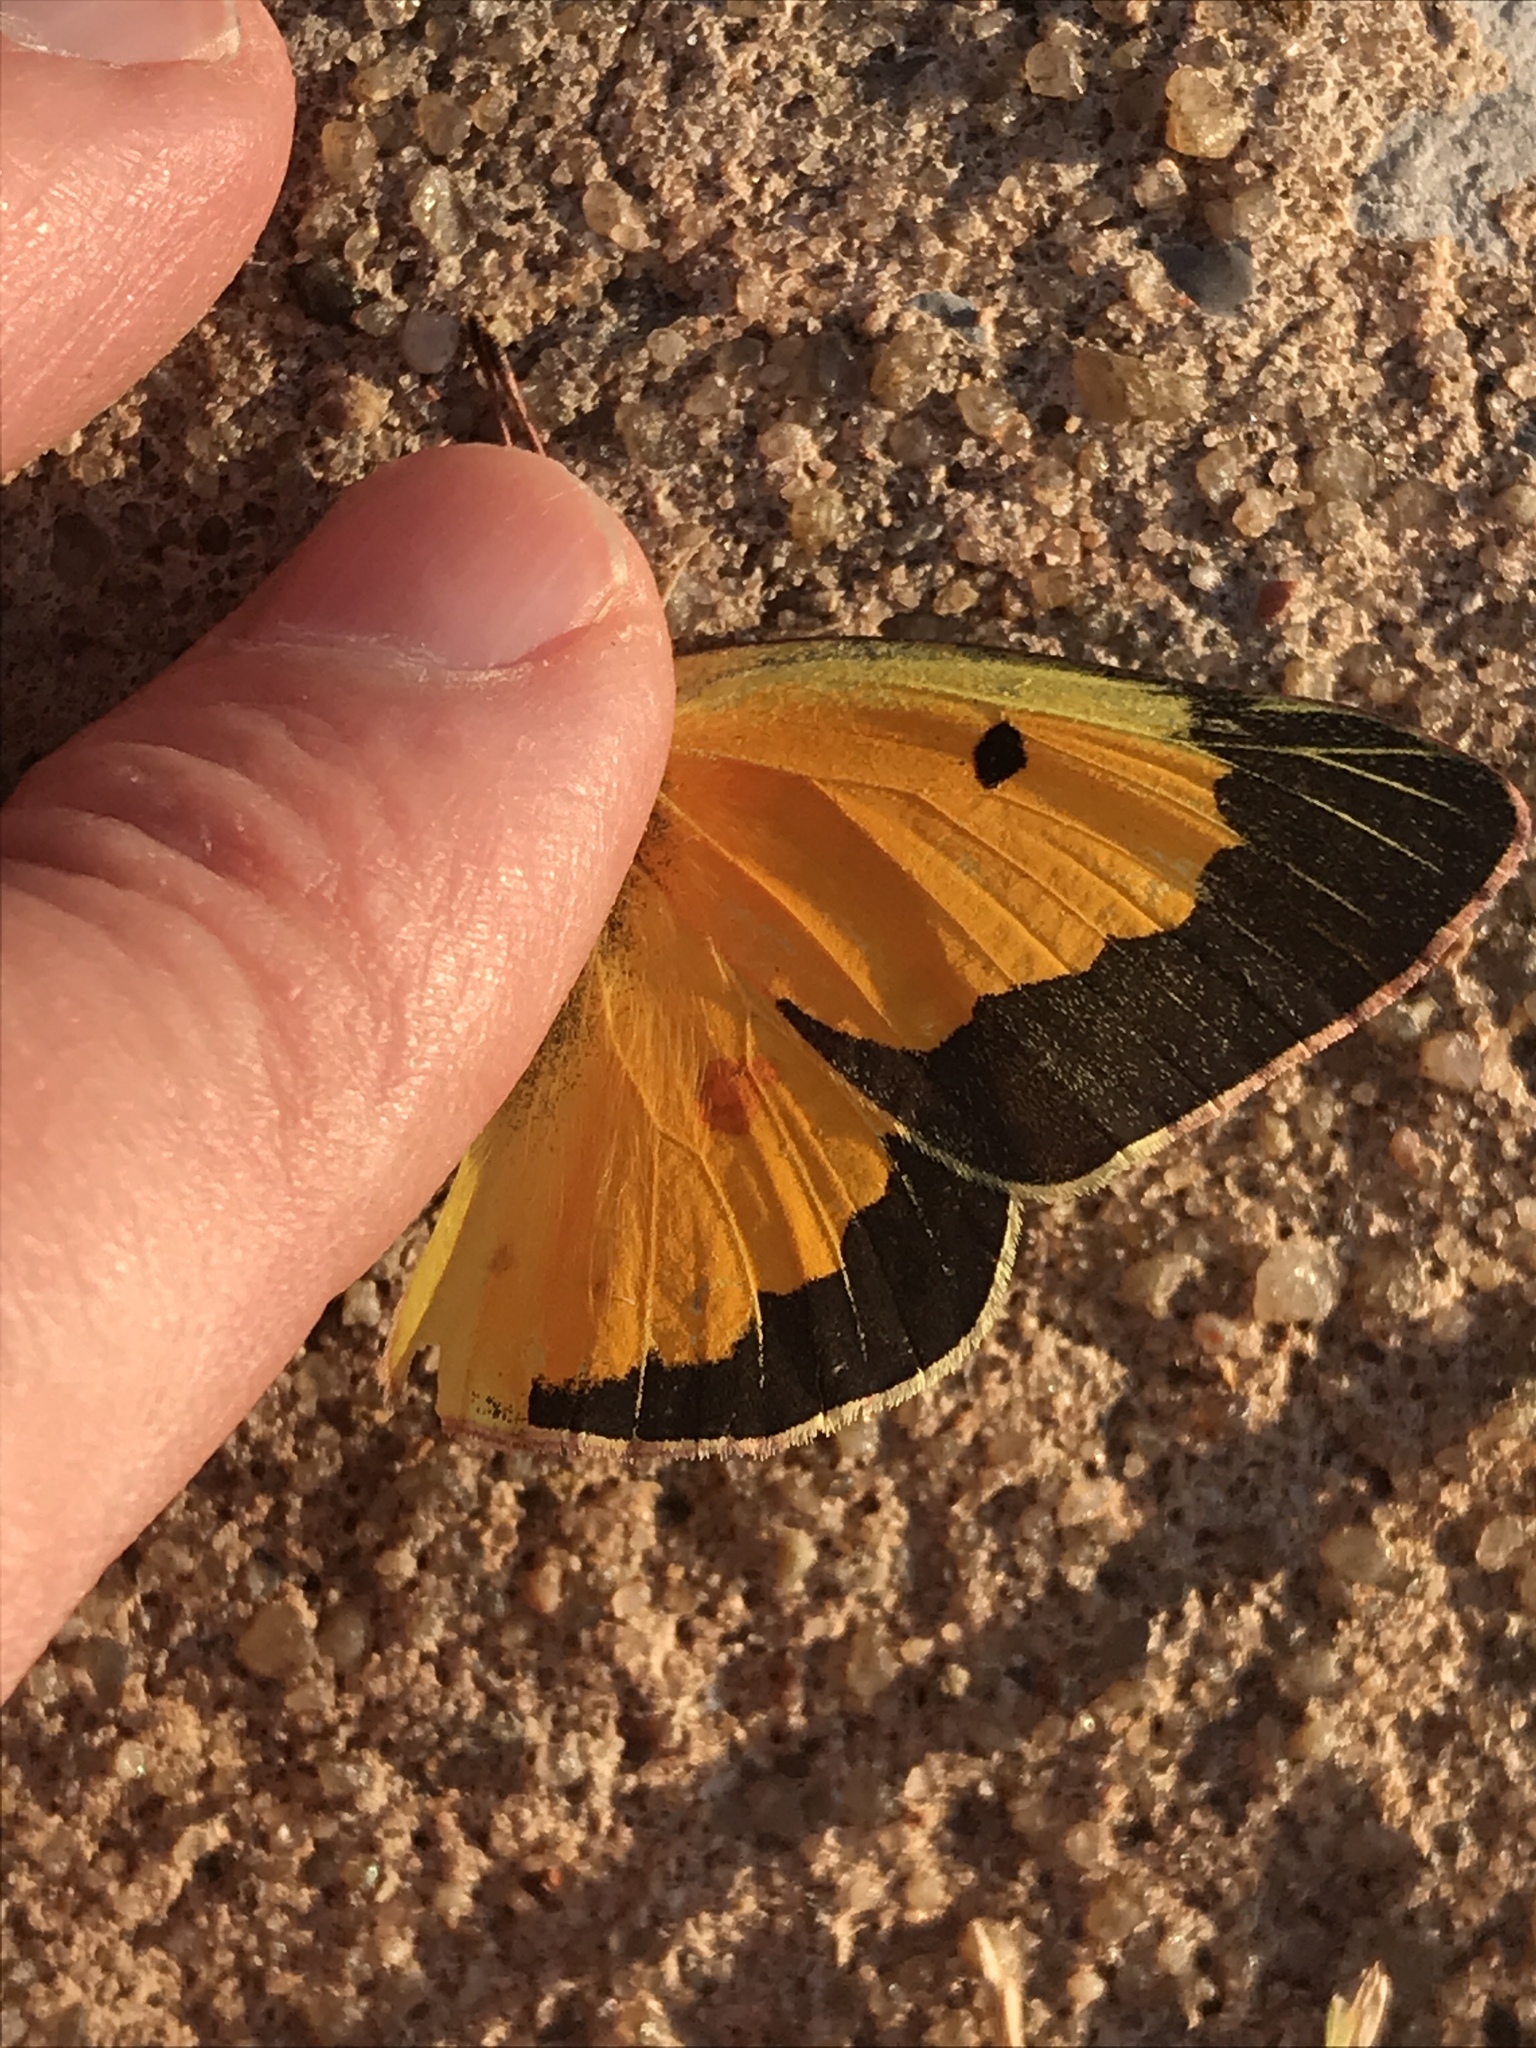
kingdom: Animalia
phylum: Arthropoda
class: Insecta
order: Lepidoptera
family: Pieridae
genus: Colias
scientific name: Colias eurytheme
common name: Alfalfa butterfly
